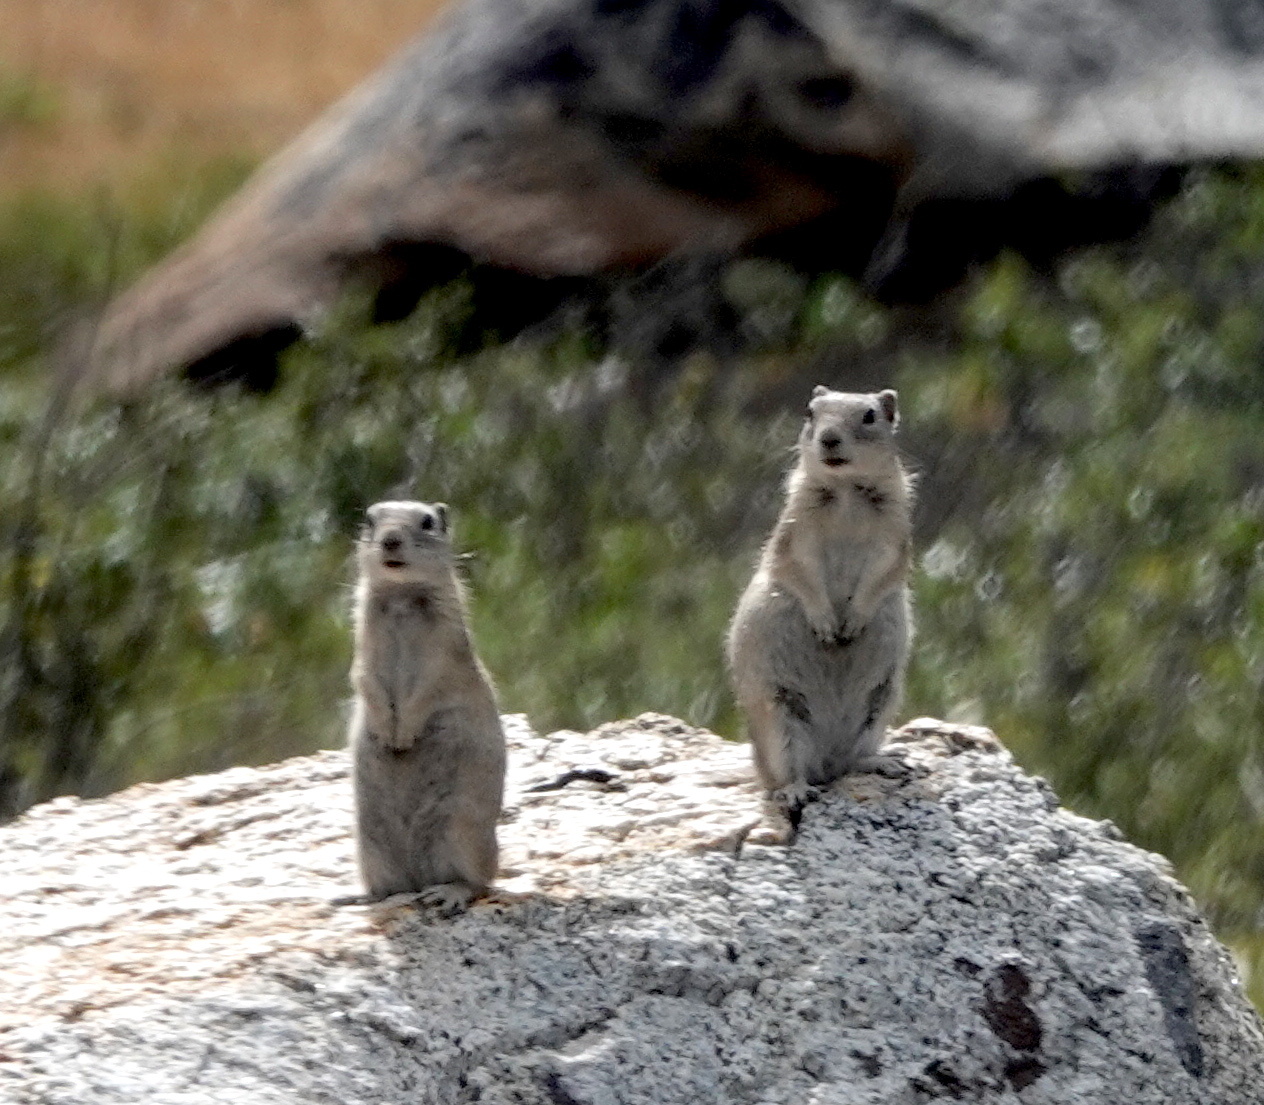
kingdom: Animalia
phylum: Chordata
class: Mammalia
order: Rodentia
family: Sciuridae
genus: Urocitellus
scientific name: Urocitellus beldingi
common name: Belding's ground squirrel
